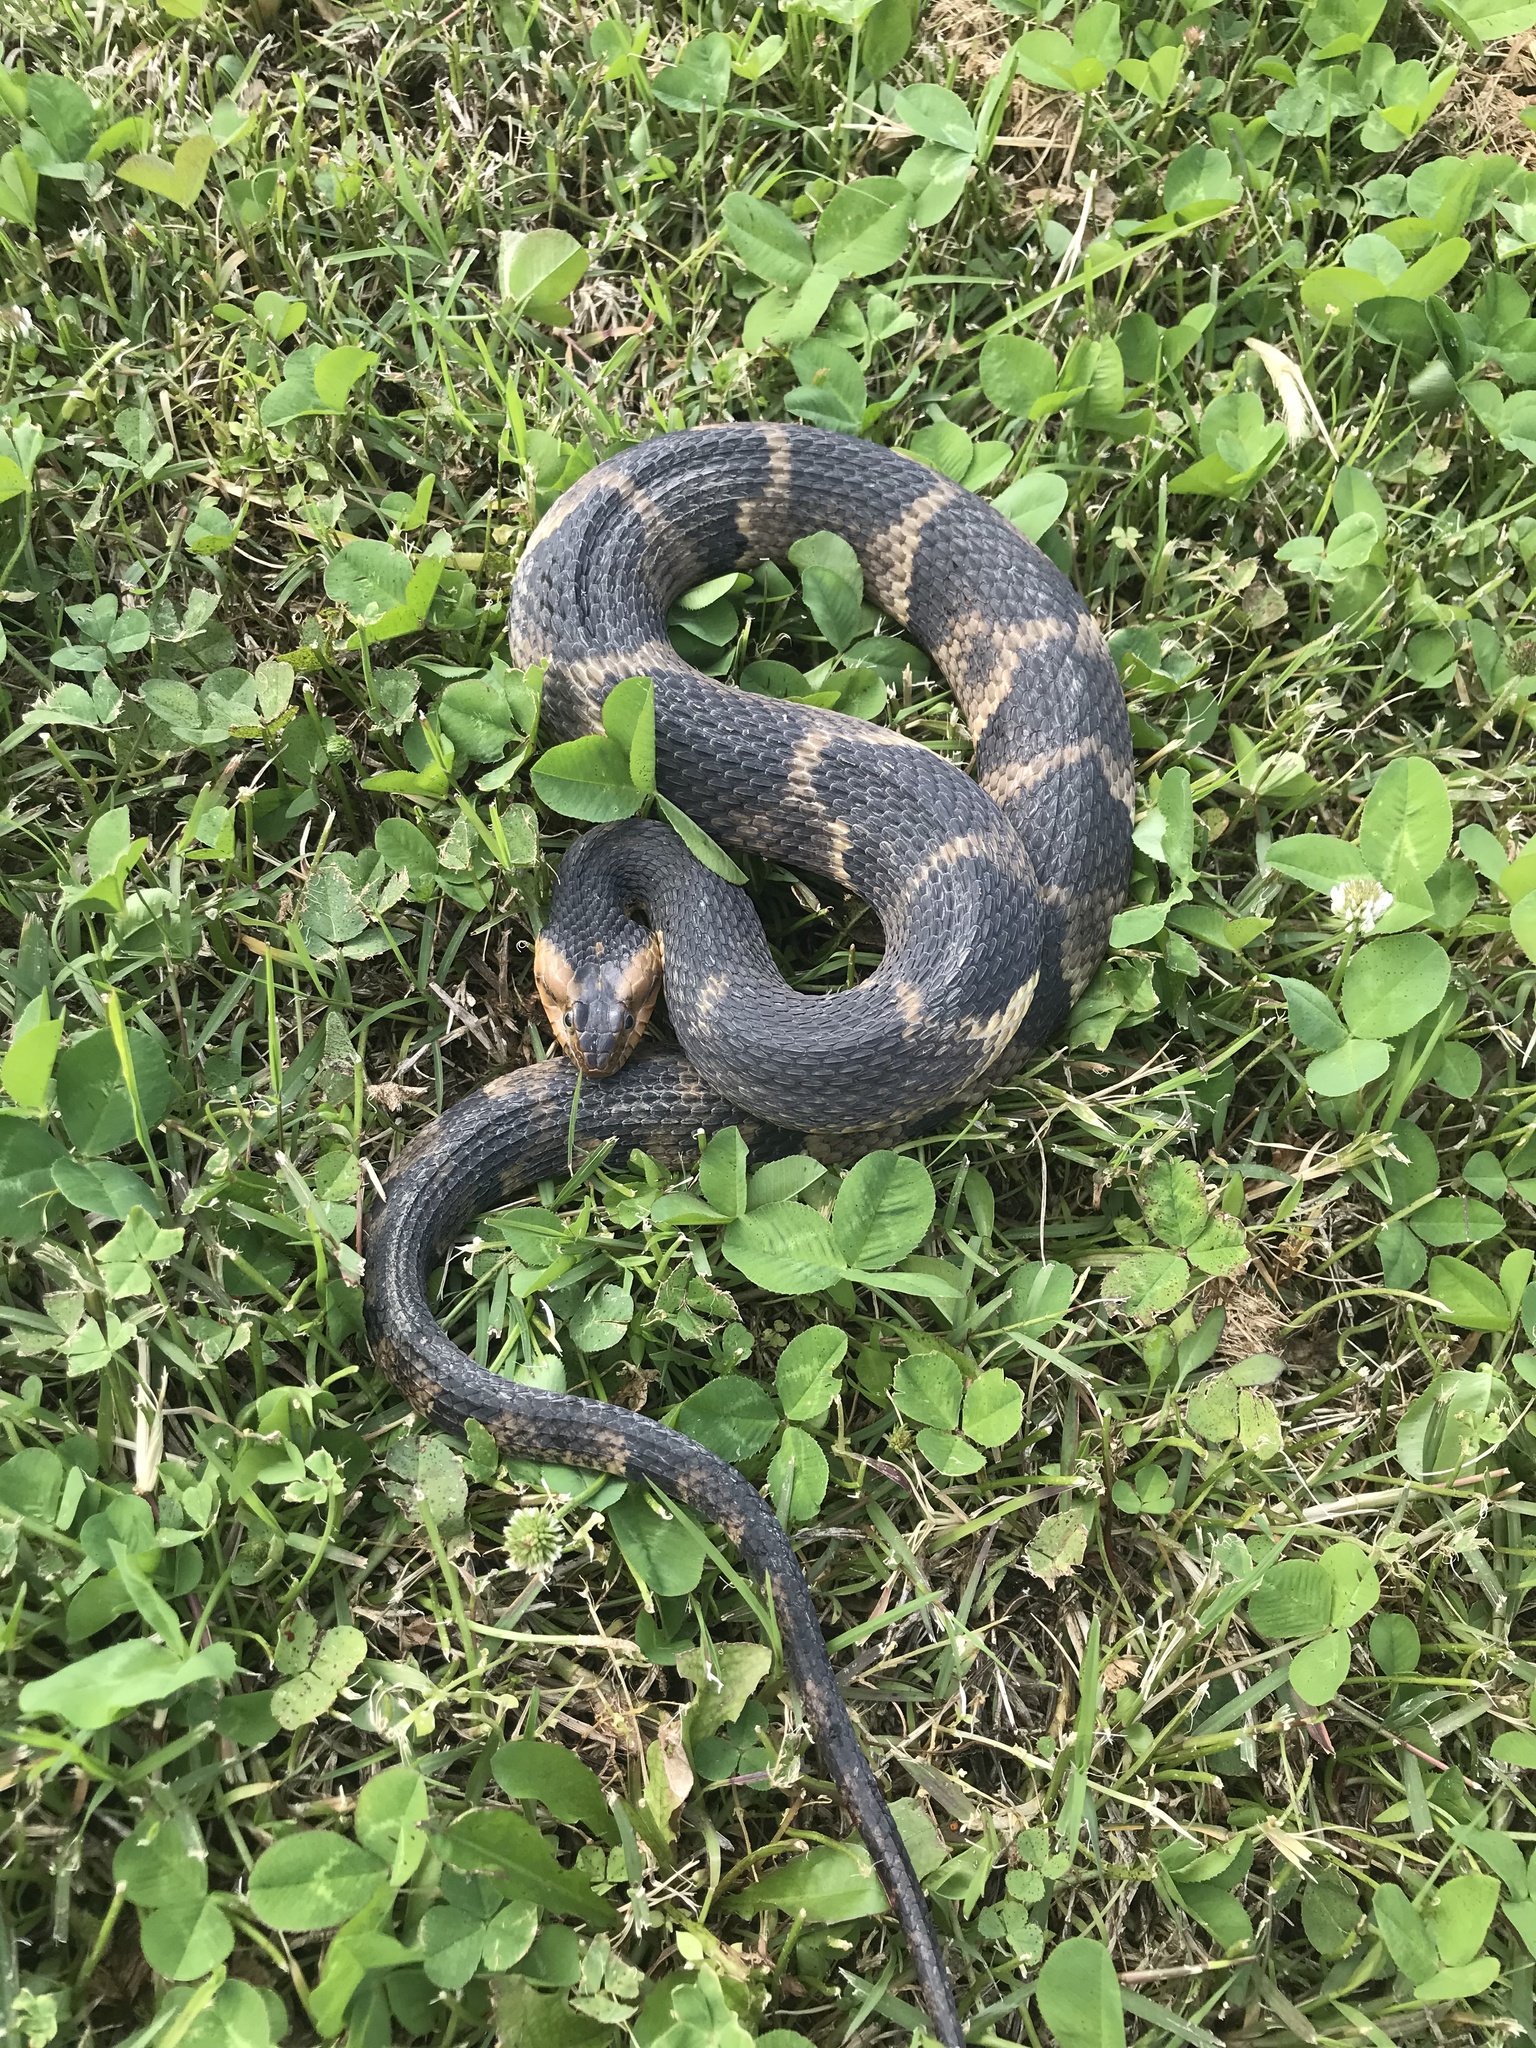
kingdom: Animalia
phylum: Chordata
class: Squamata
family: Colubridae
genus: Nerodia
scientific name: Nerodia fasciata
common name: Southern water snake
